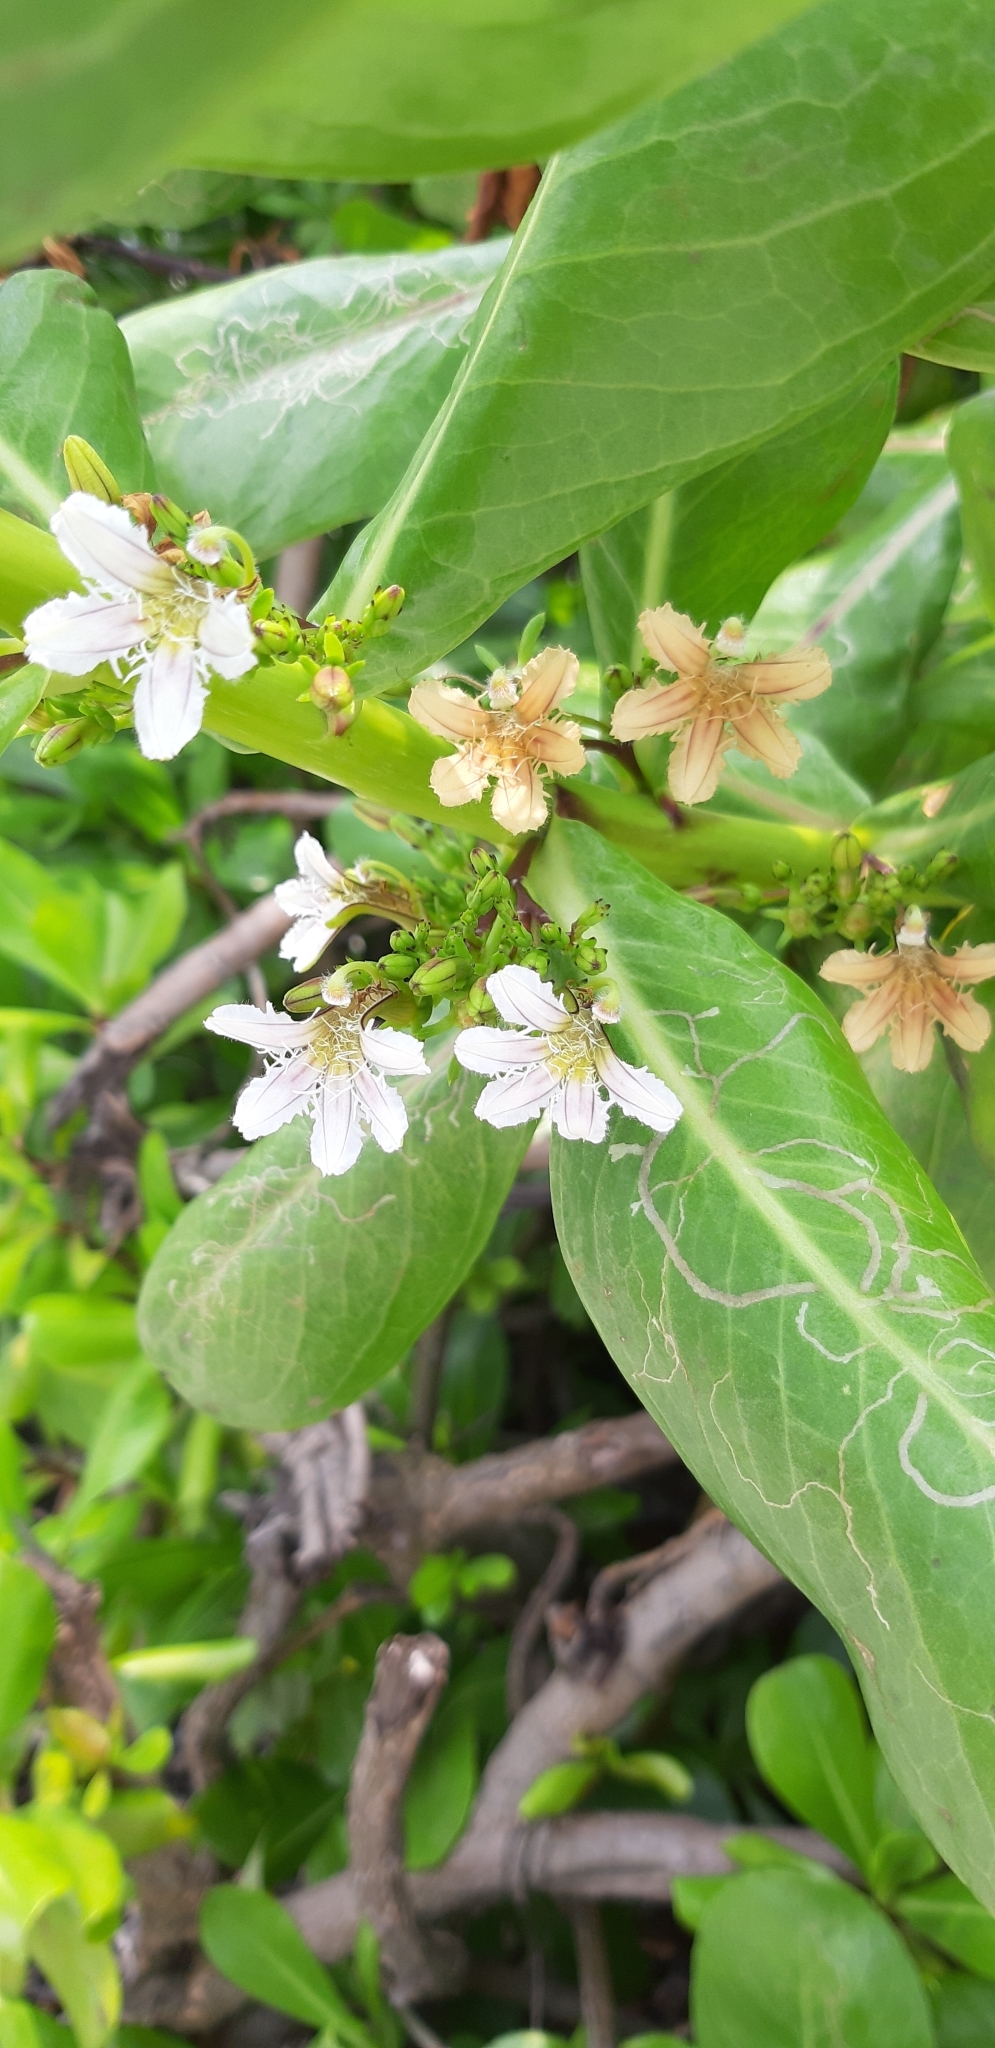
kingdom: Plantae
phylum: Tracheophyta
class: Magnoliopsida
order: Asterales
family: Goodeniaceae
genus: Scaevola
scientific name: Scaevola taccada
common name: Sea lettucetree
